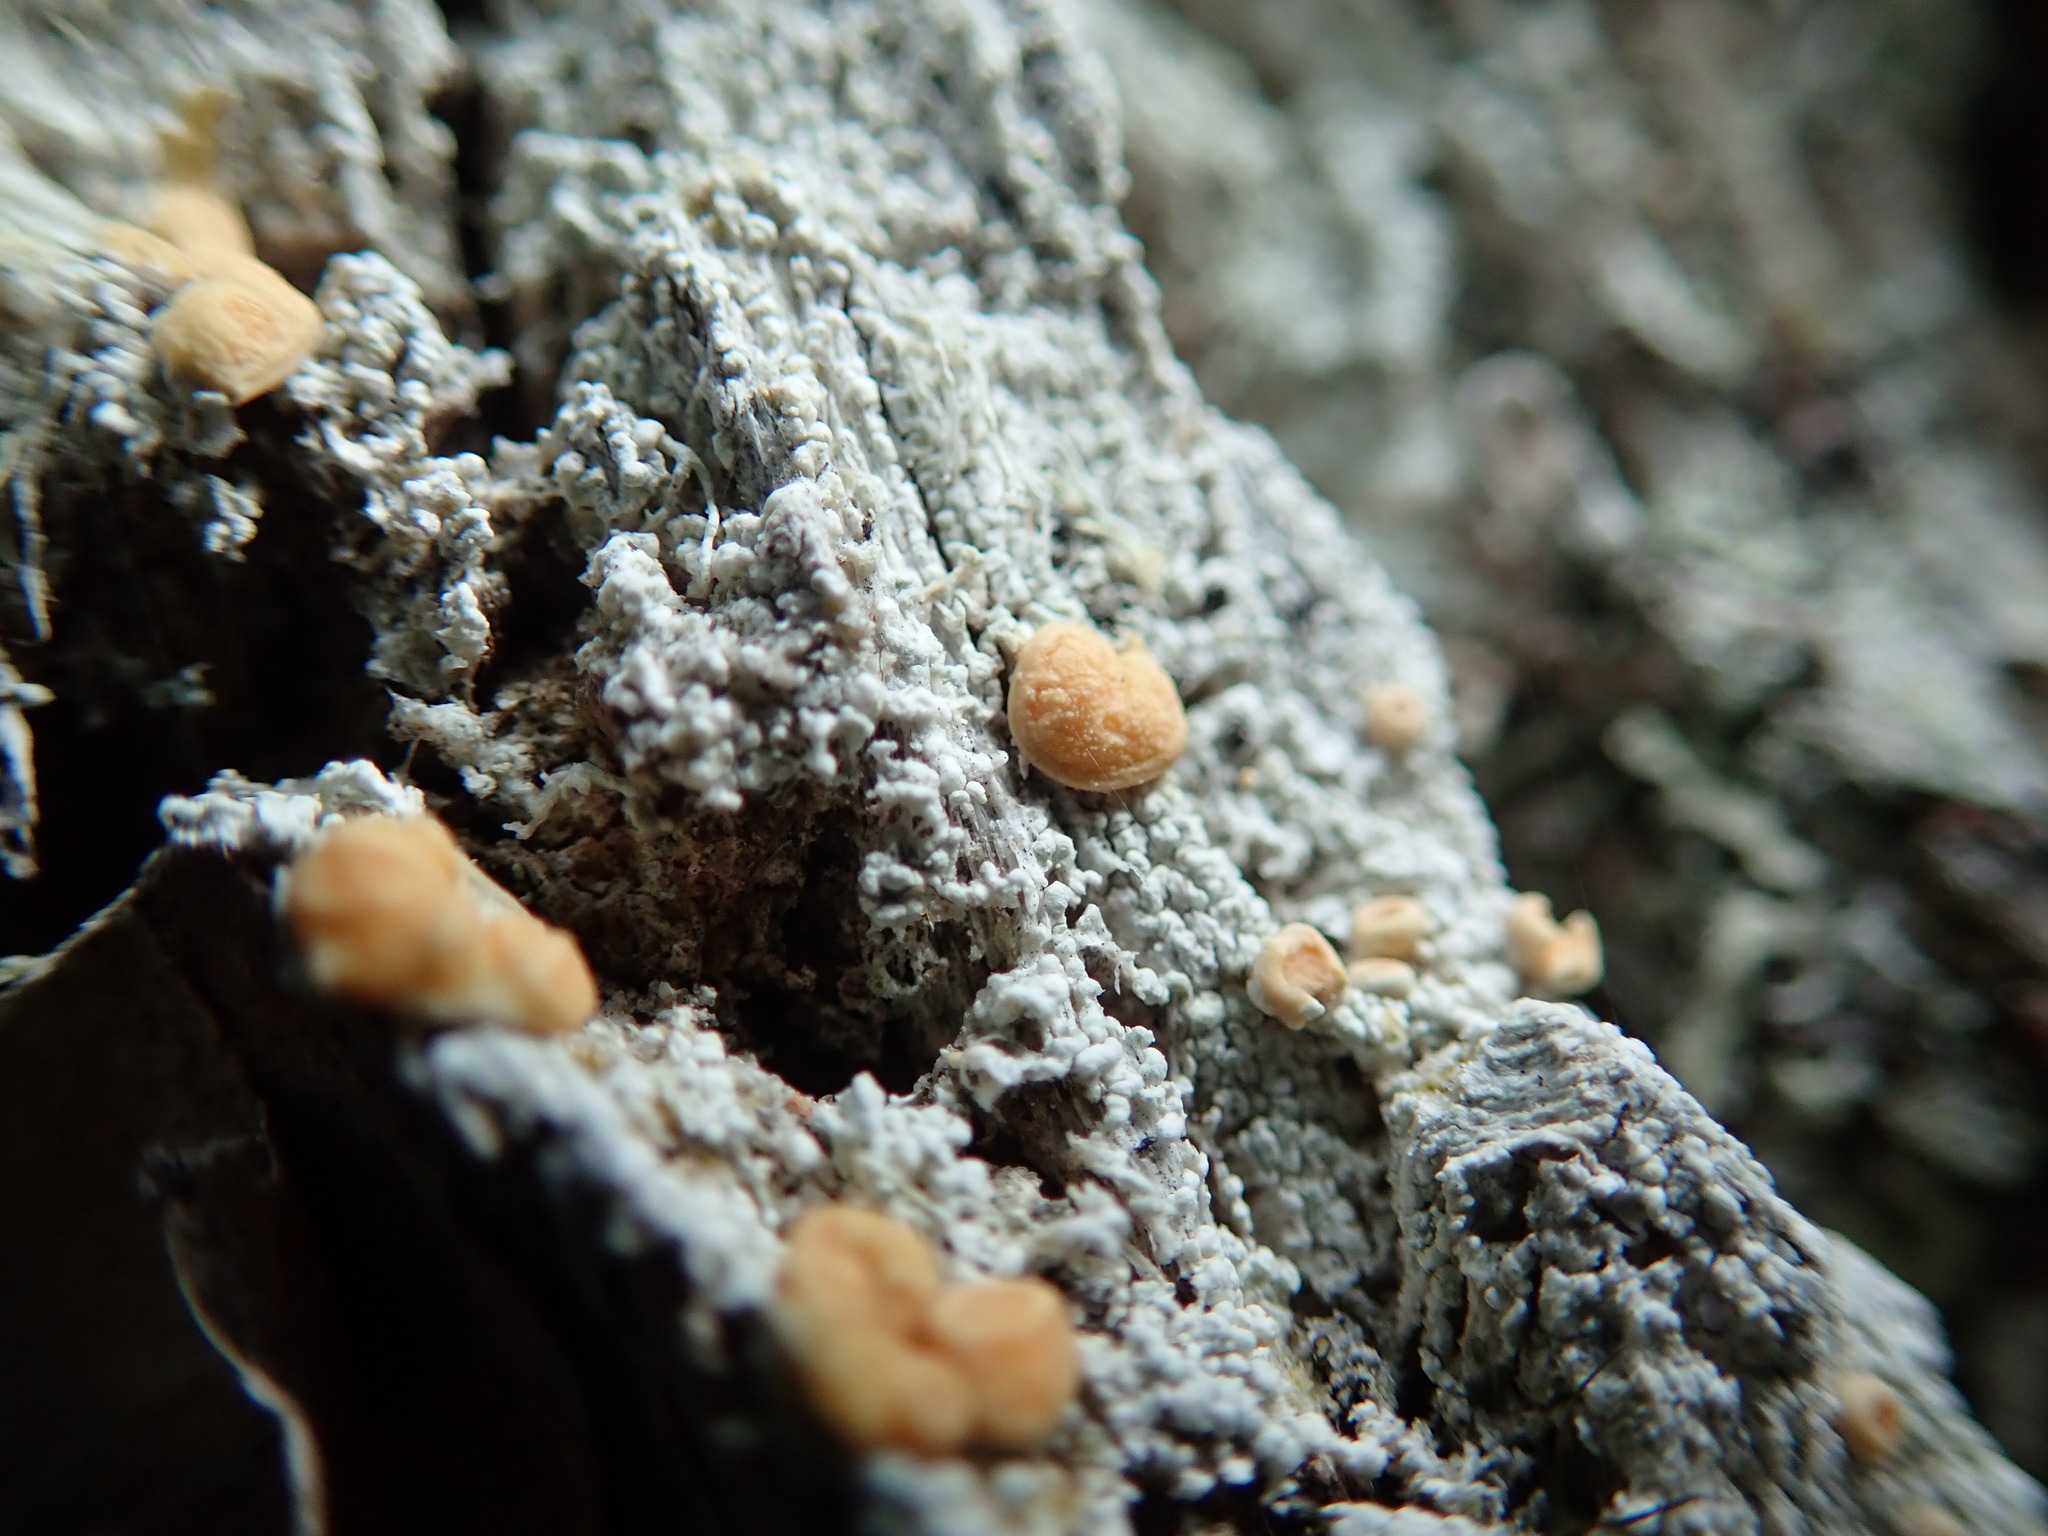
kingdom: Fungi
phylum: Ascomycota
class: Lecanoromycetes
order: Pertusariales
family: Ochrolechiaceae
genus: Ochrolechia
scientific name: Ochrolechia oregonensis
